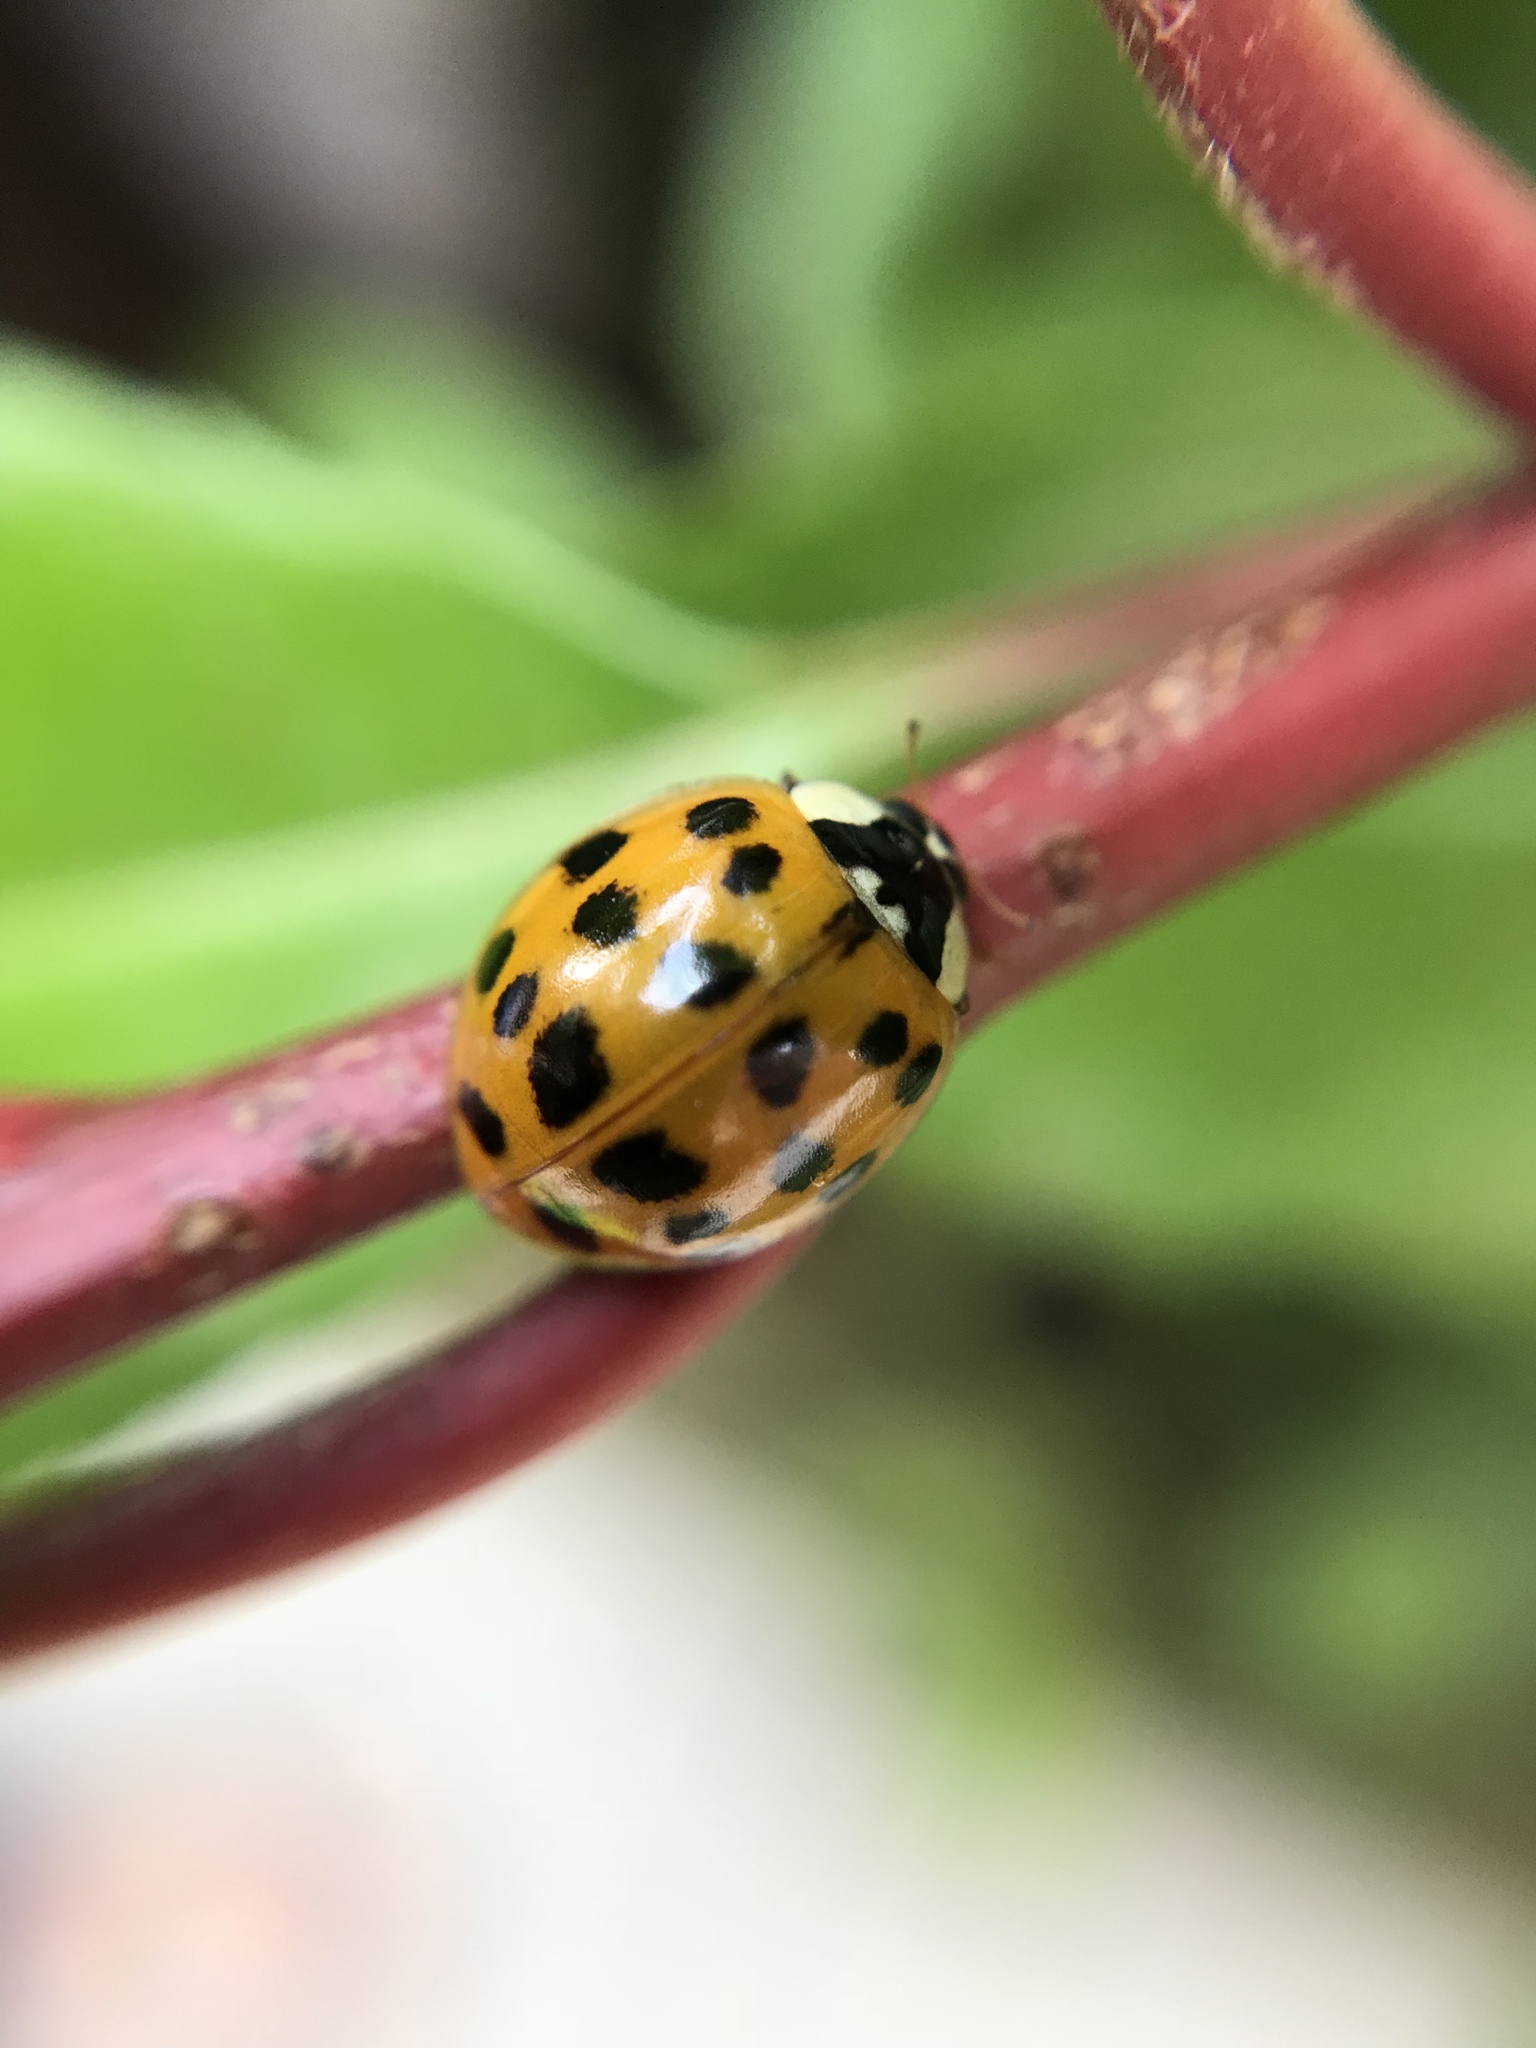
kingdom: Animalia
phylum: Arthropoda
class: Insecta
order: Coleoptera
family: Coccinellidae
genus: Harmonia
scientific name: Harmonia axyridis
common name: Harlequin ladybird
